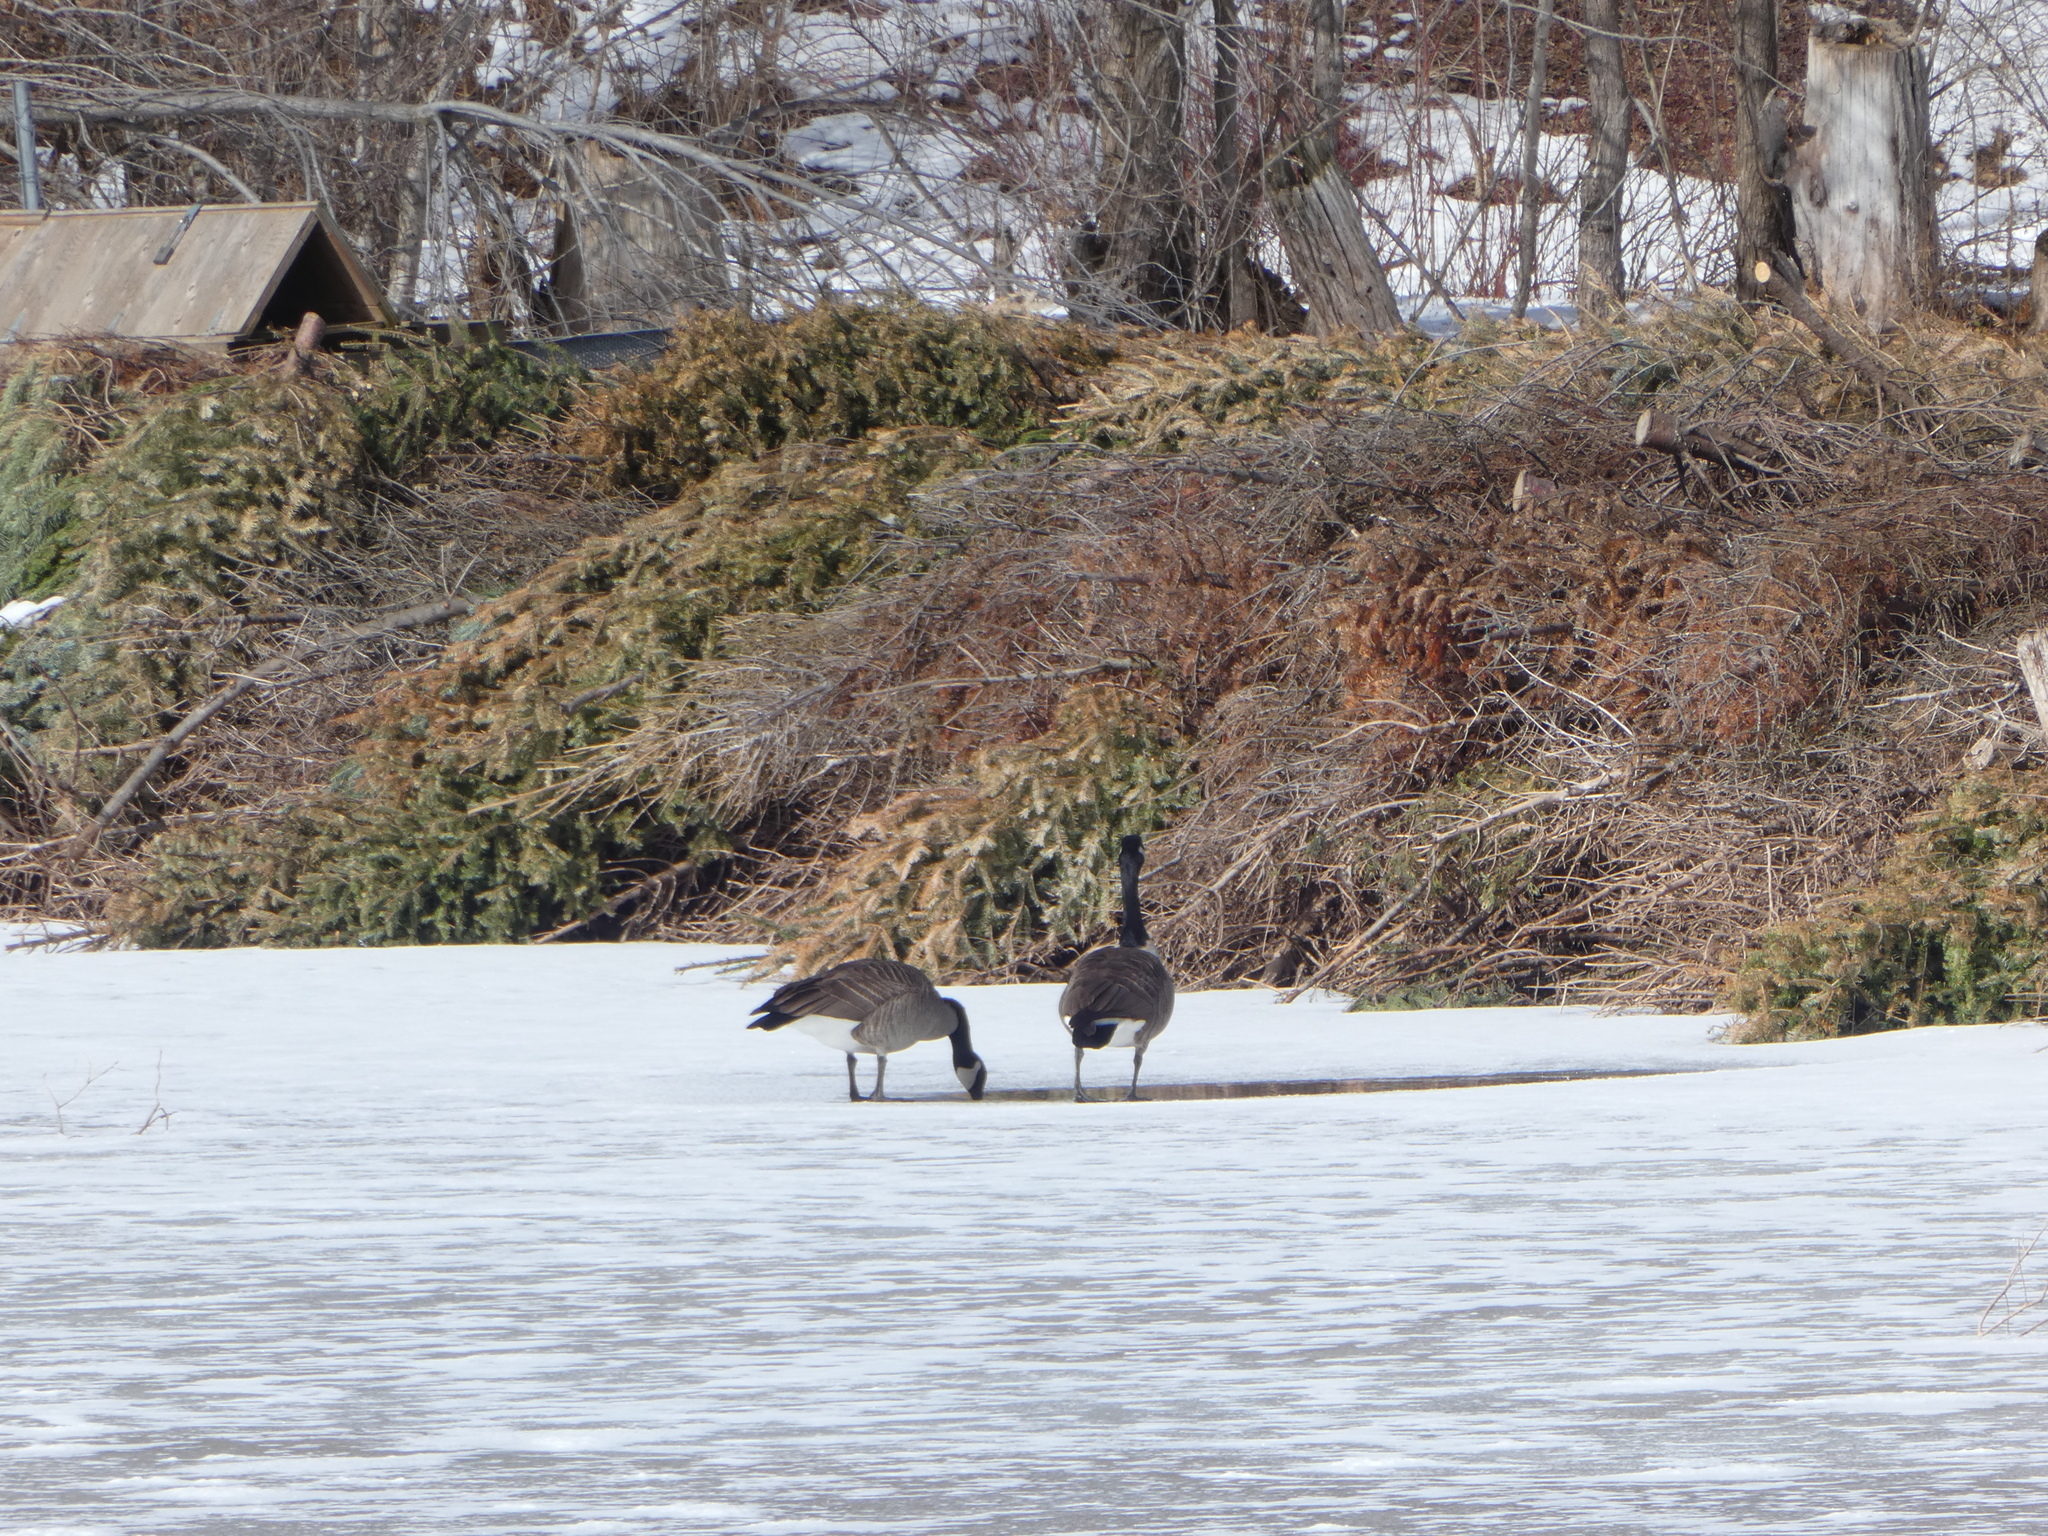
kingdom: Animalia
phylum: Chordata
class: Aves
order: Anseriformes
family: Anatidae
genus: Branta
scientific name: Branta canadensis
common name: Canada goose
